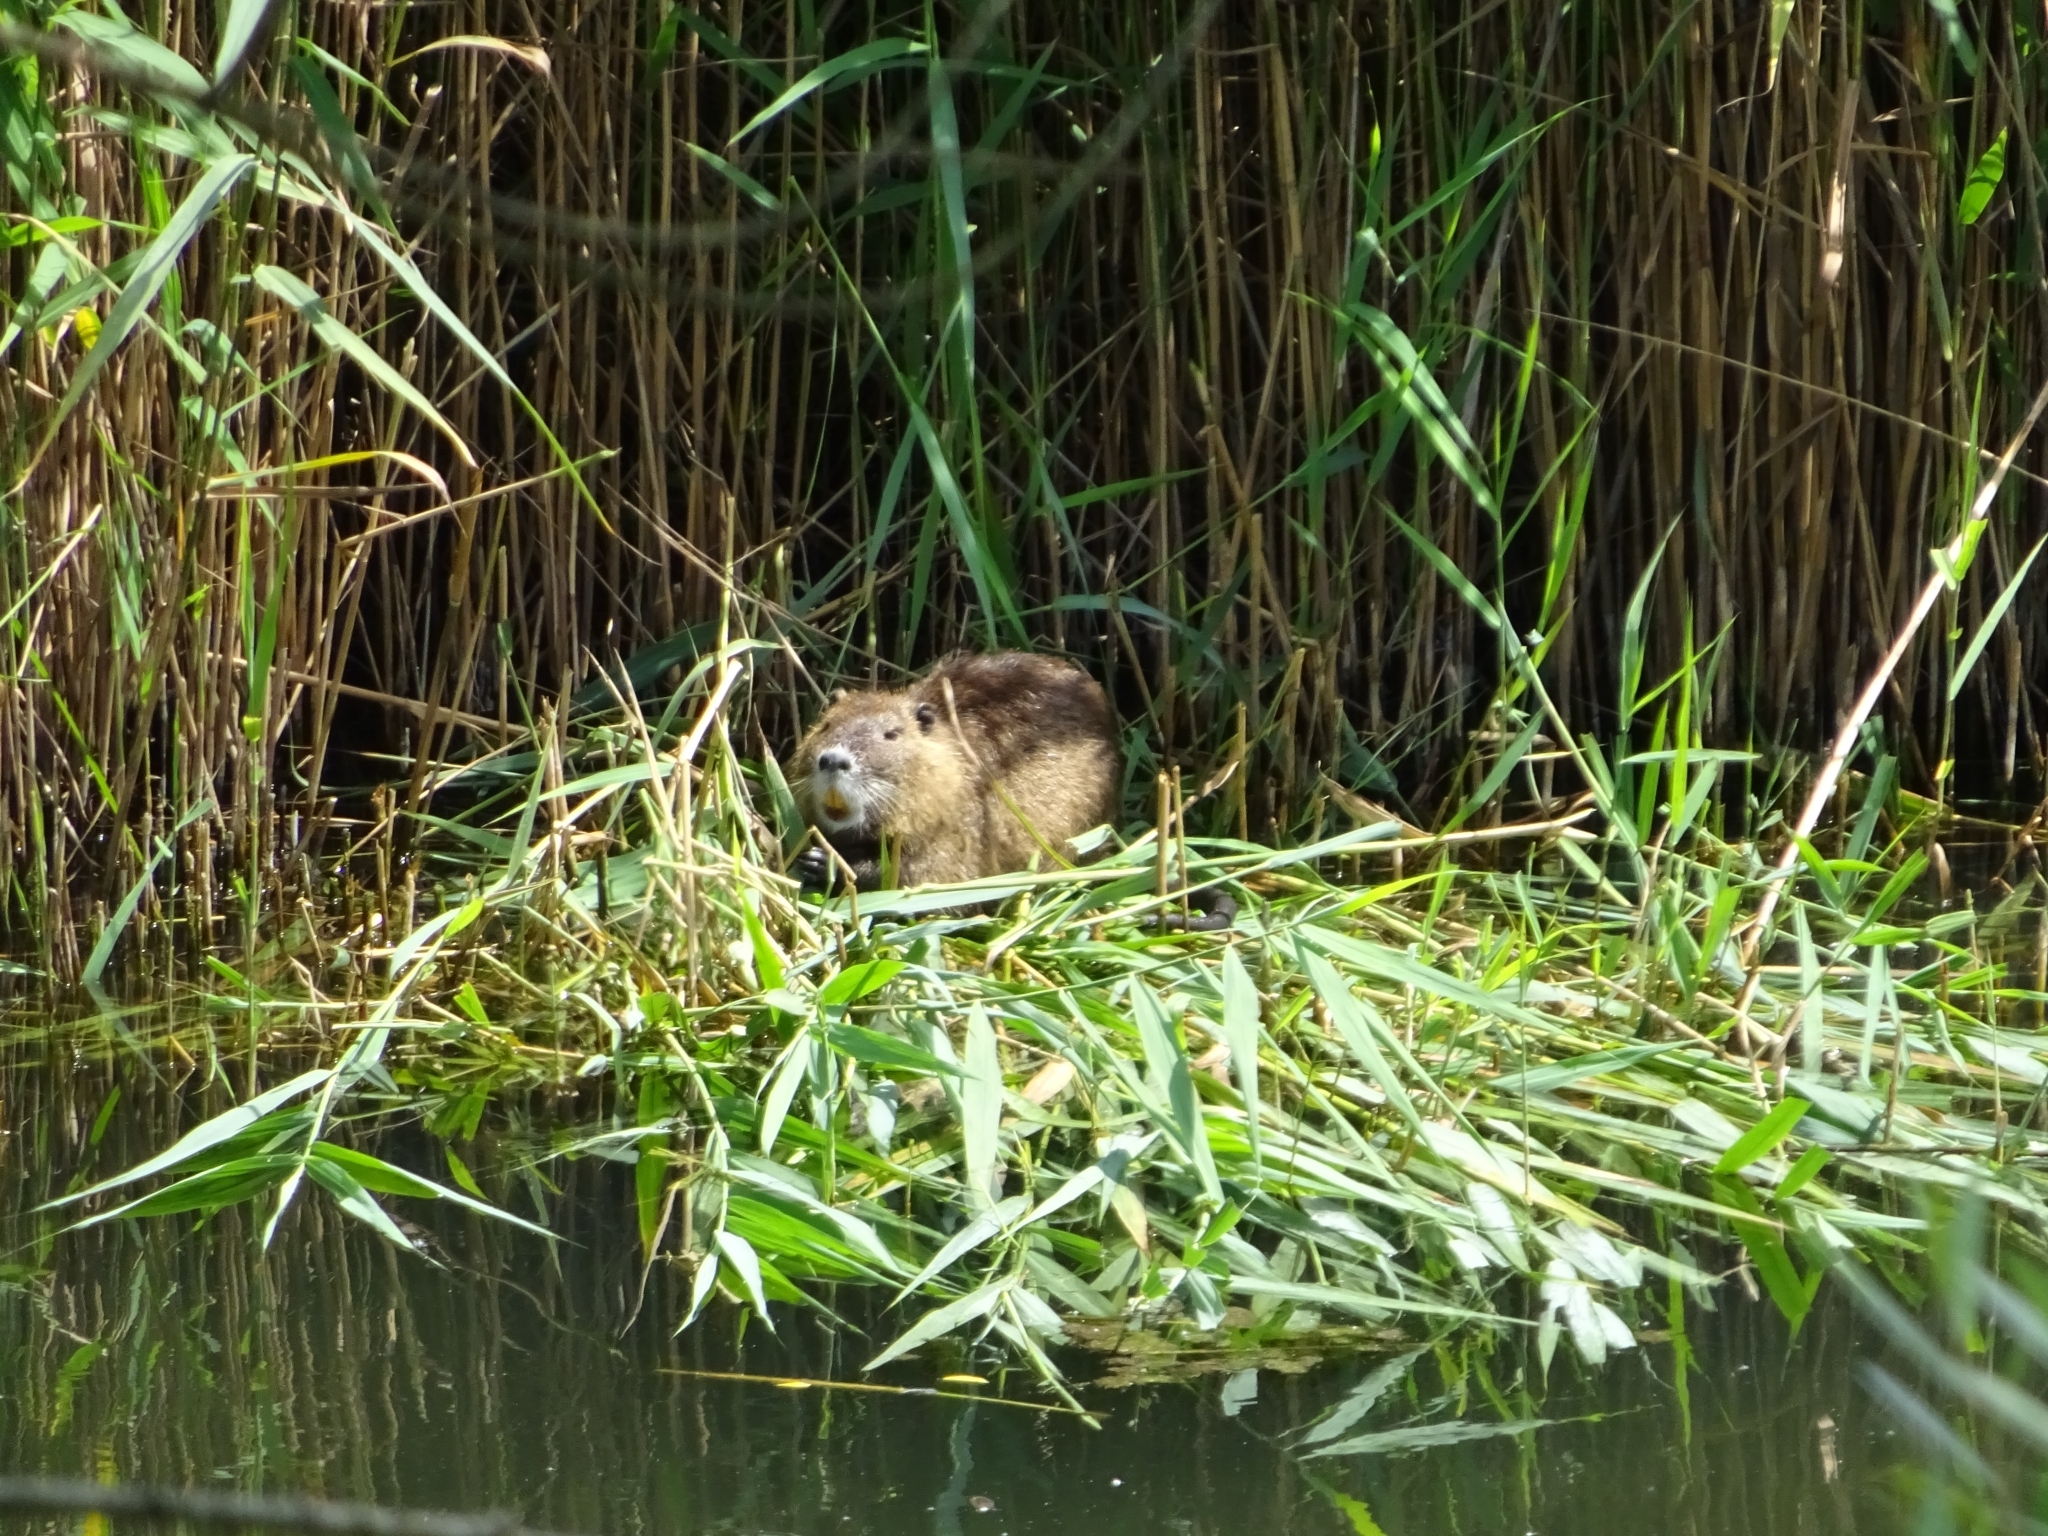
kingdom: Animalia
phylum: Chordata
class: Mammalia
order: Rodentia
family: Myocastoridae
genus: Myocastor
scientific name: Myocastor coypus
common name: Coypu
